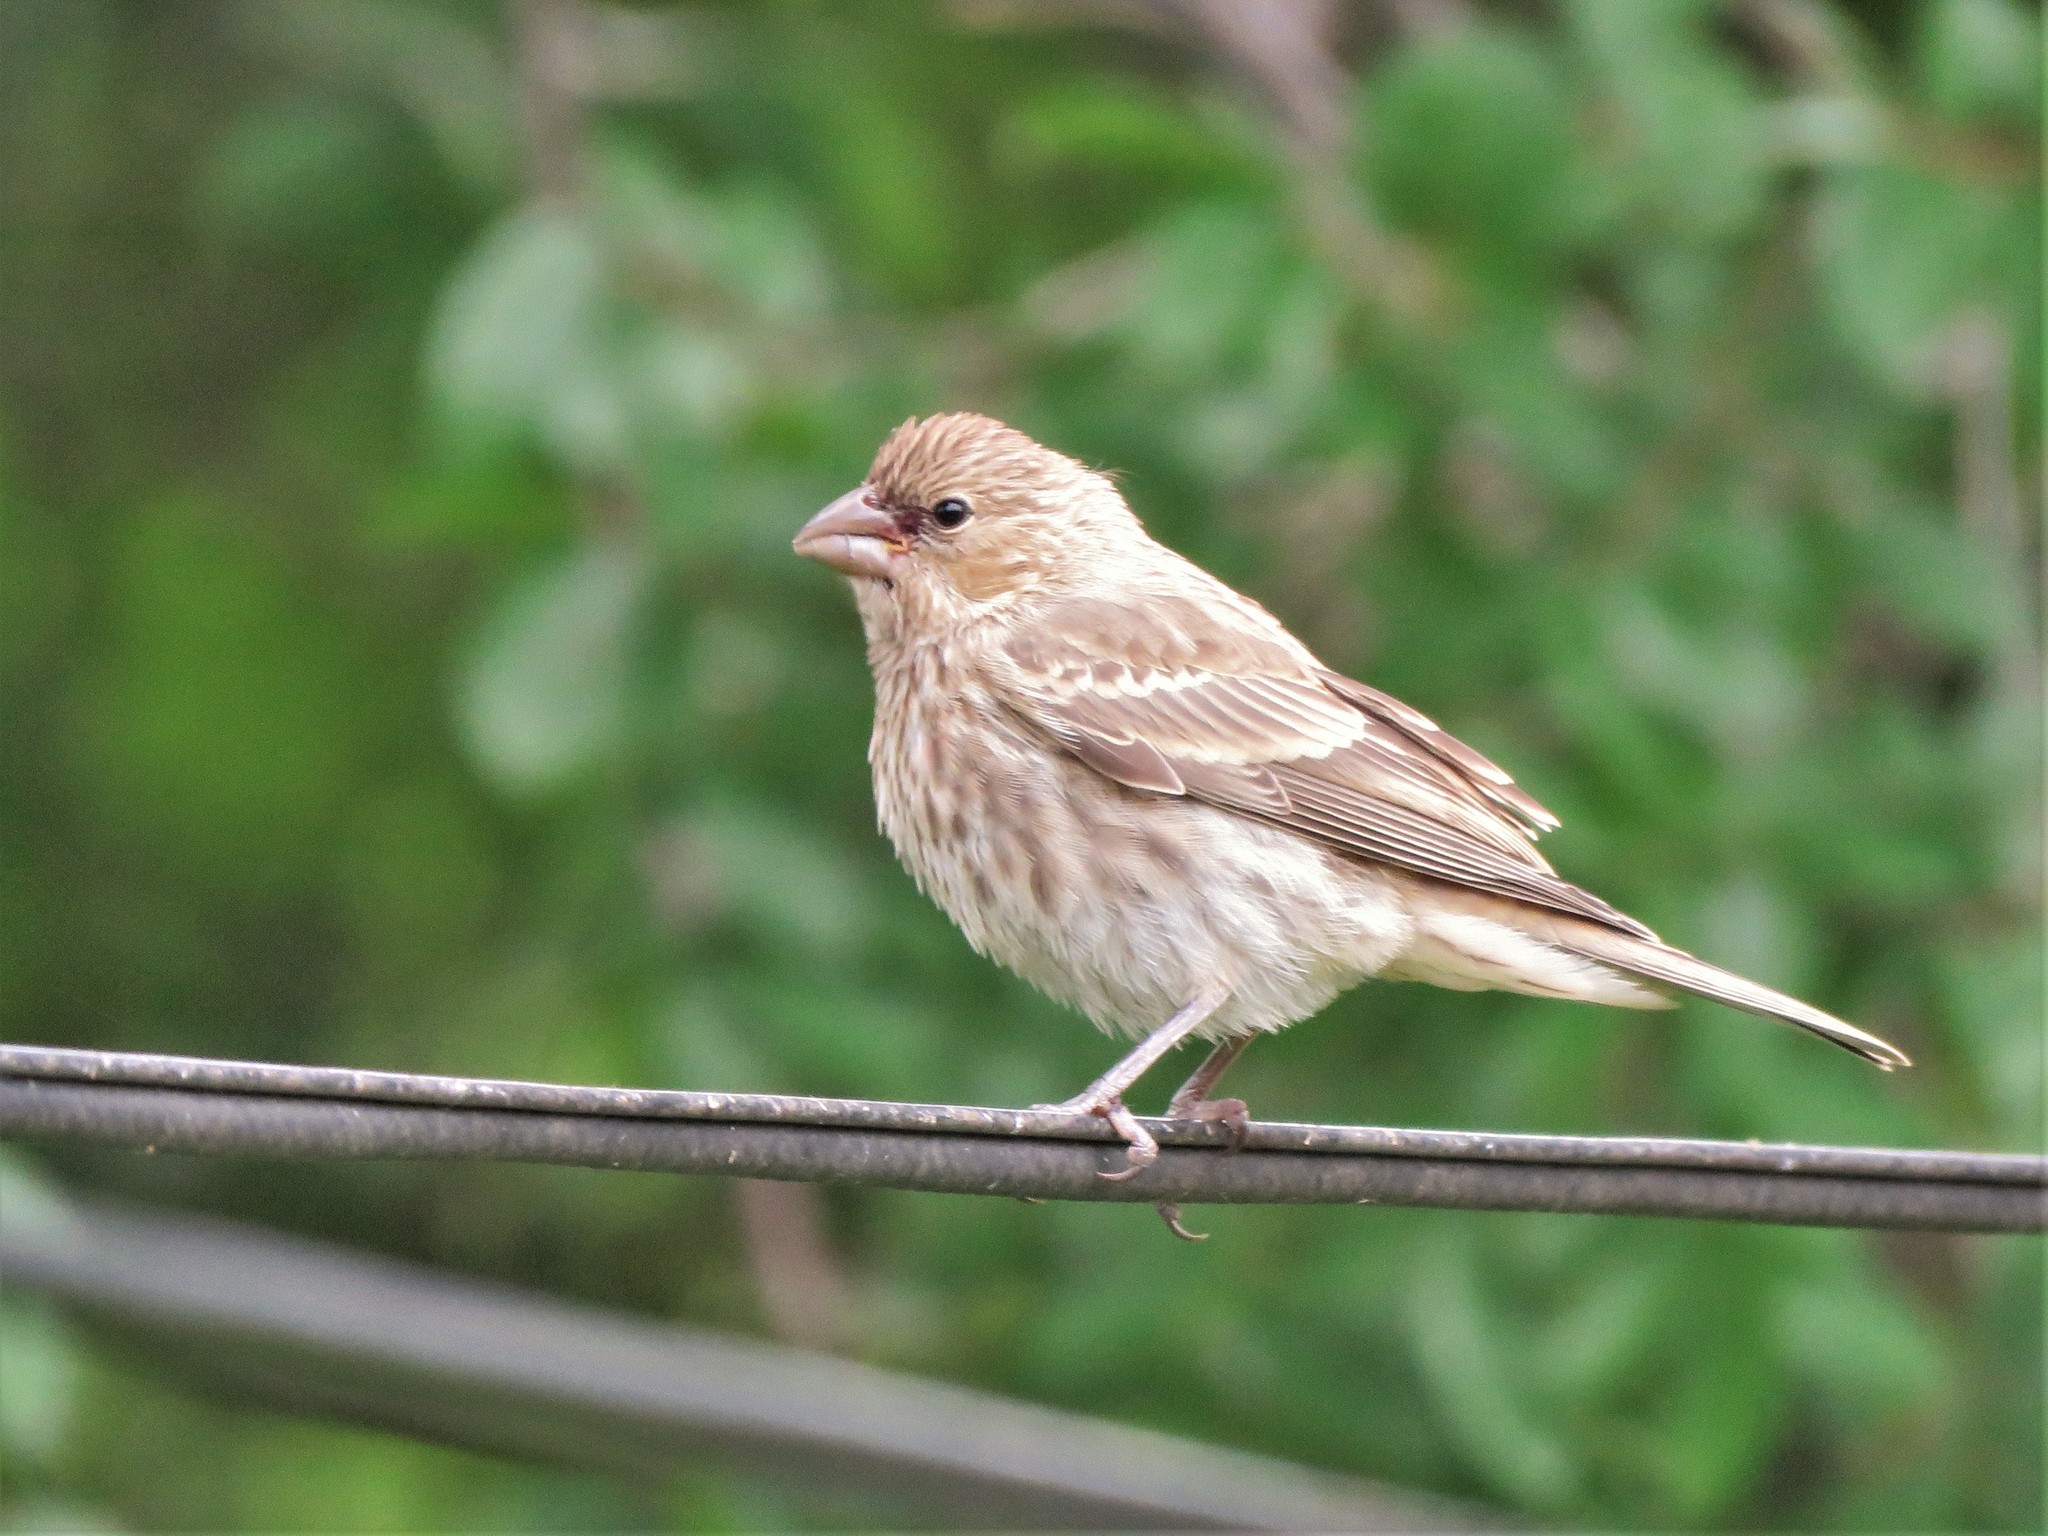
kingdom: Animalia
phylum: Chordata
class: Aves
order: Passeriformes
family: Fringillidae
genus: Haemorhous
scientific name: Haemorhous mexicanus
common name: House finch
